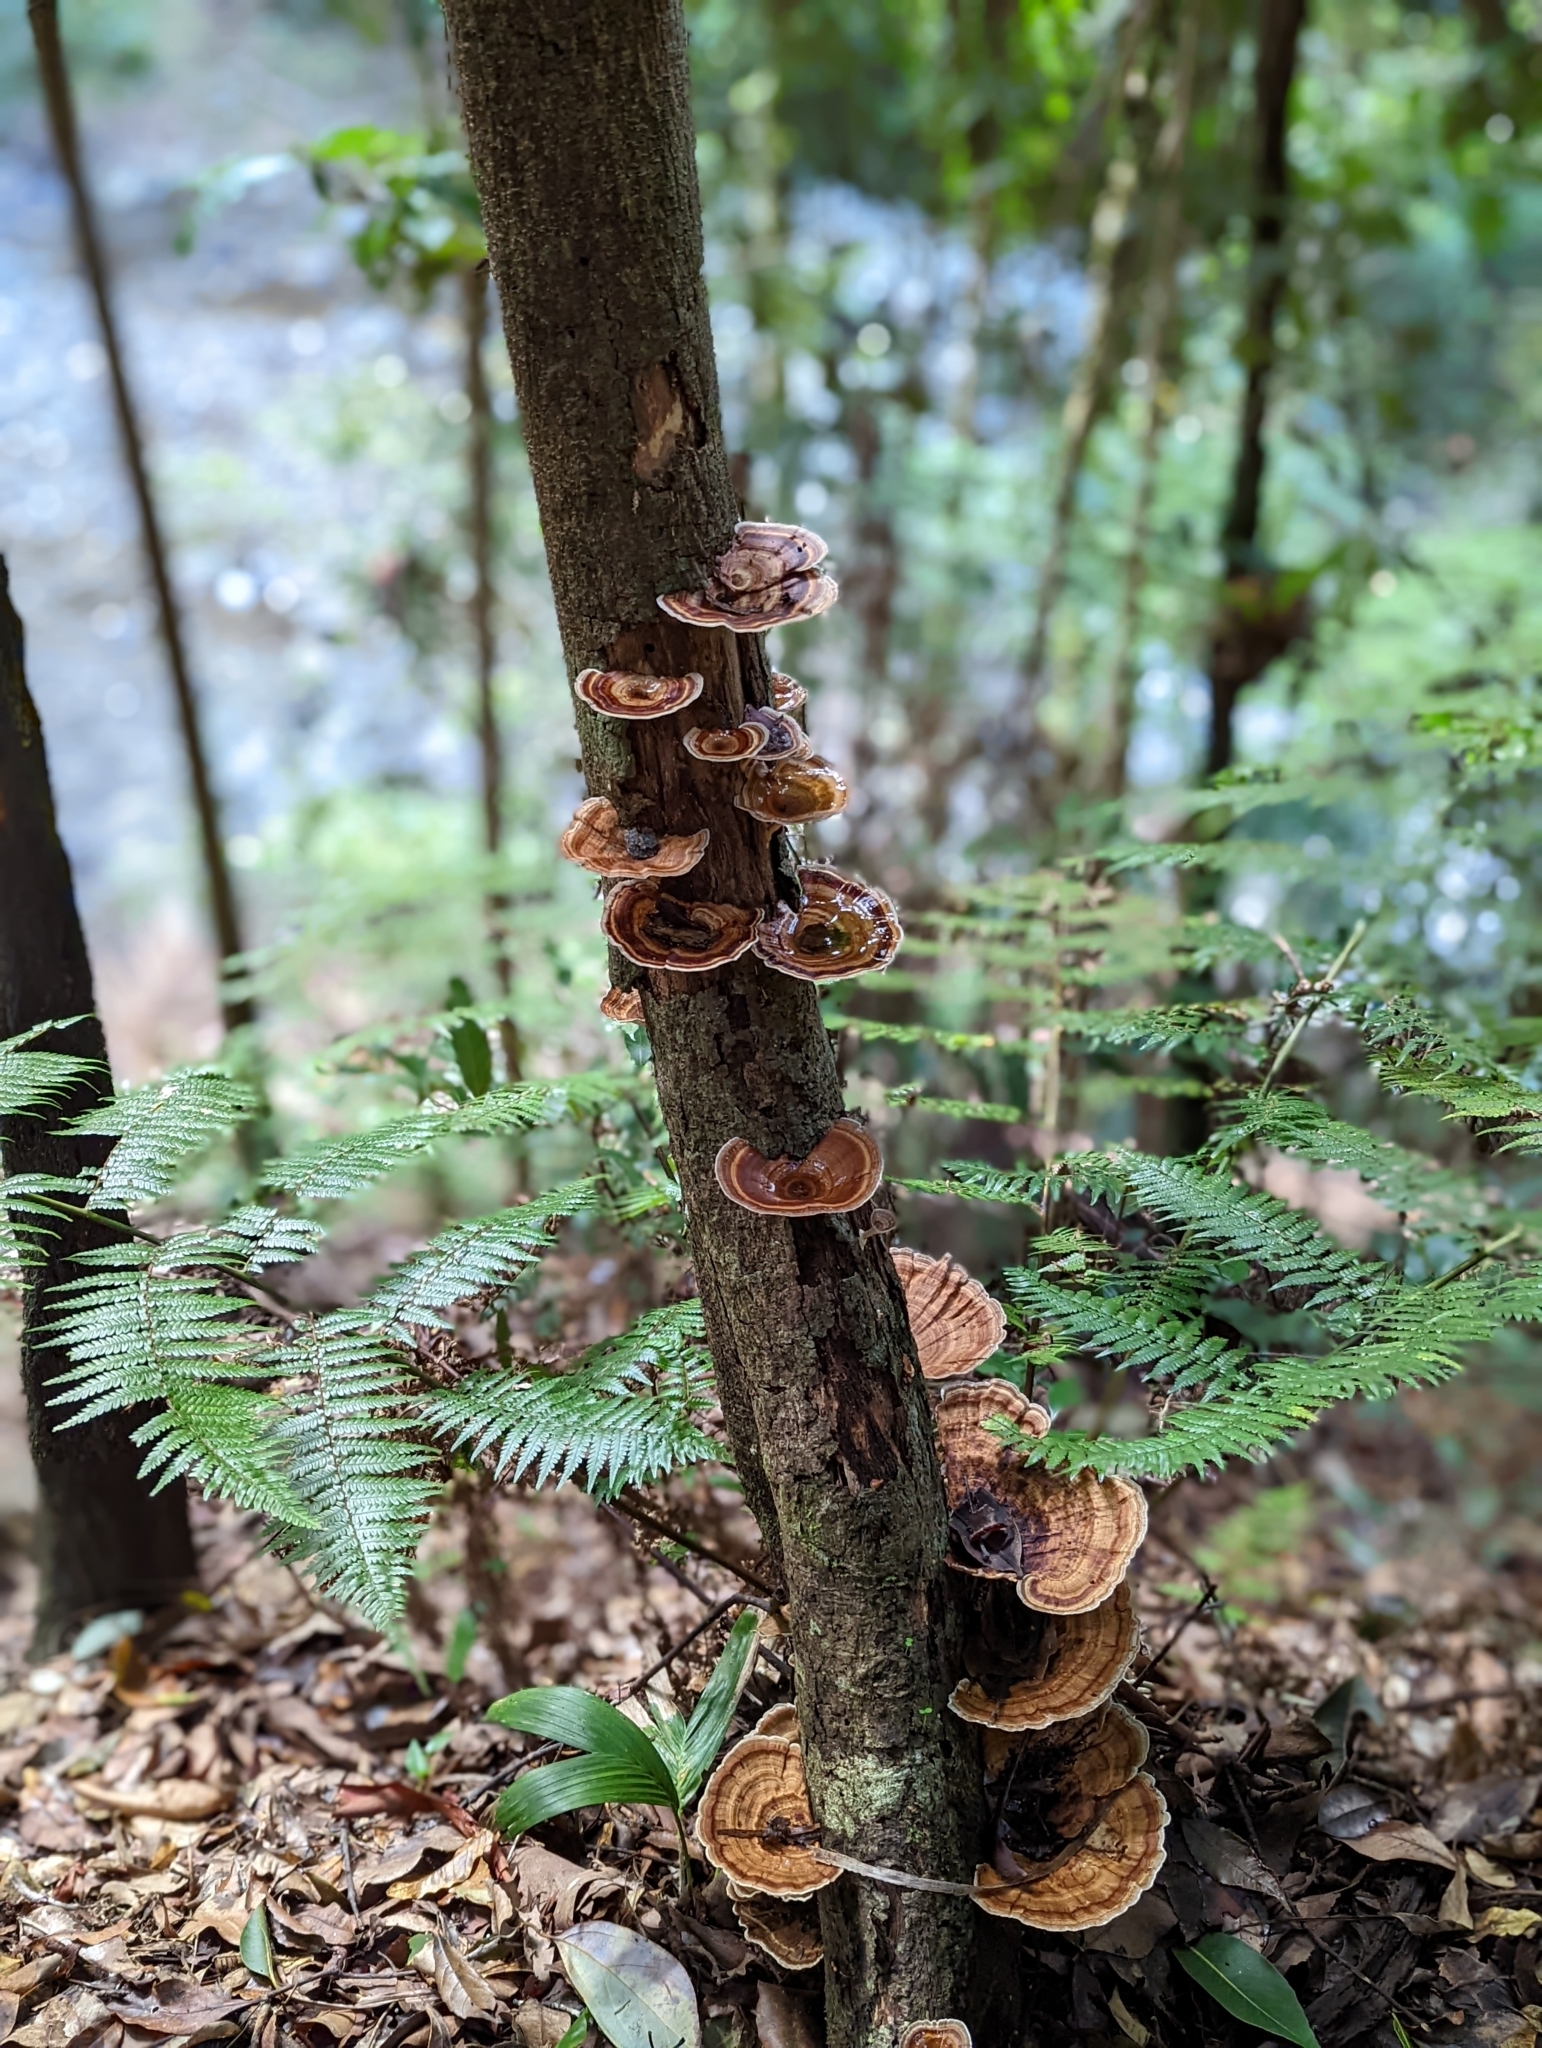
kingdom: Fungi
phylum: Basidiomycota
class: Agaricomycetes
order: Polyporales
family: Polyporaceae
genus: Microporus
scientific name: Microporus xanthopus
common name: Yellow-stemmed micropore
